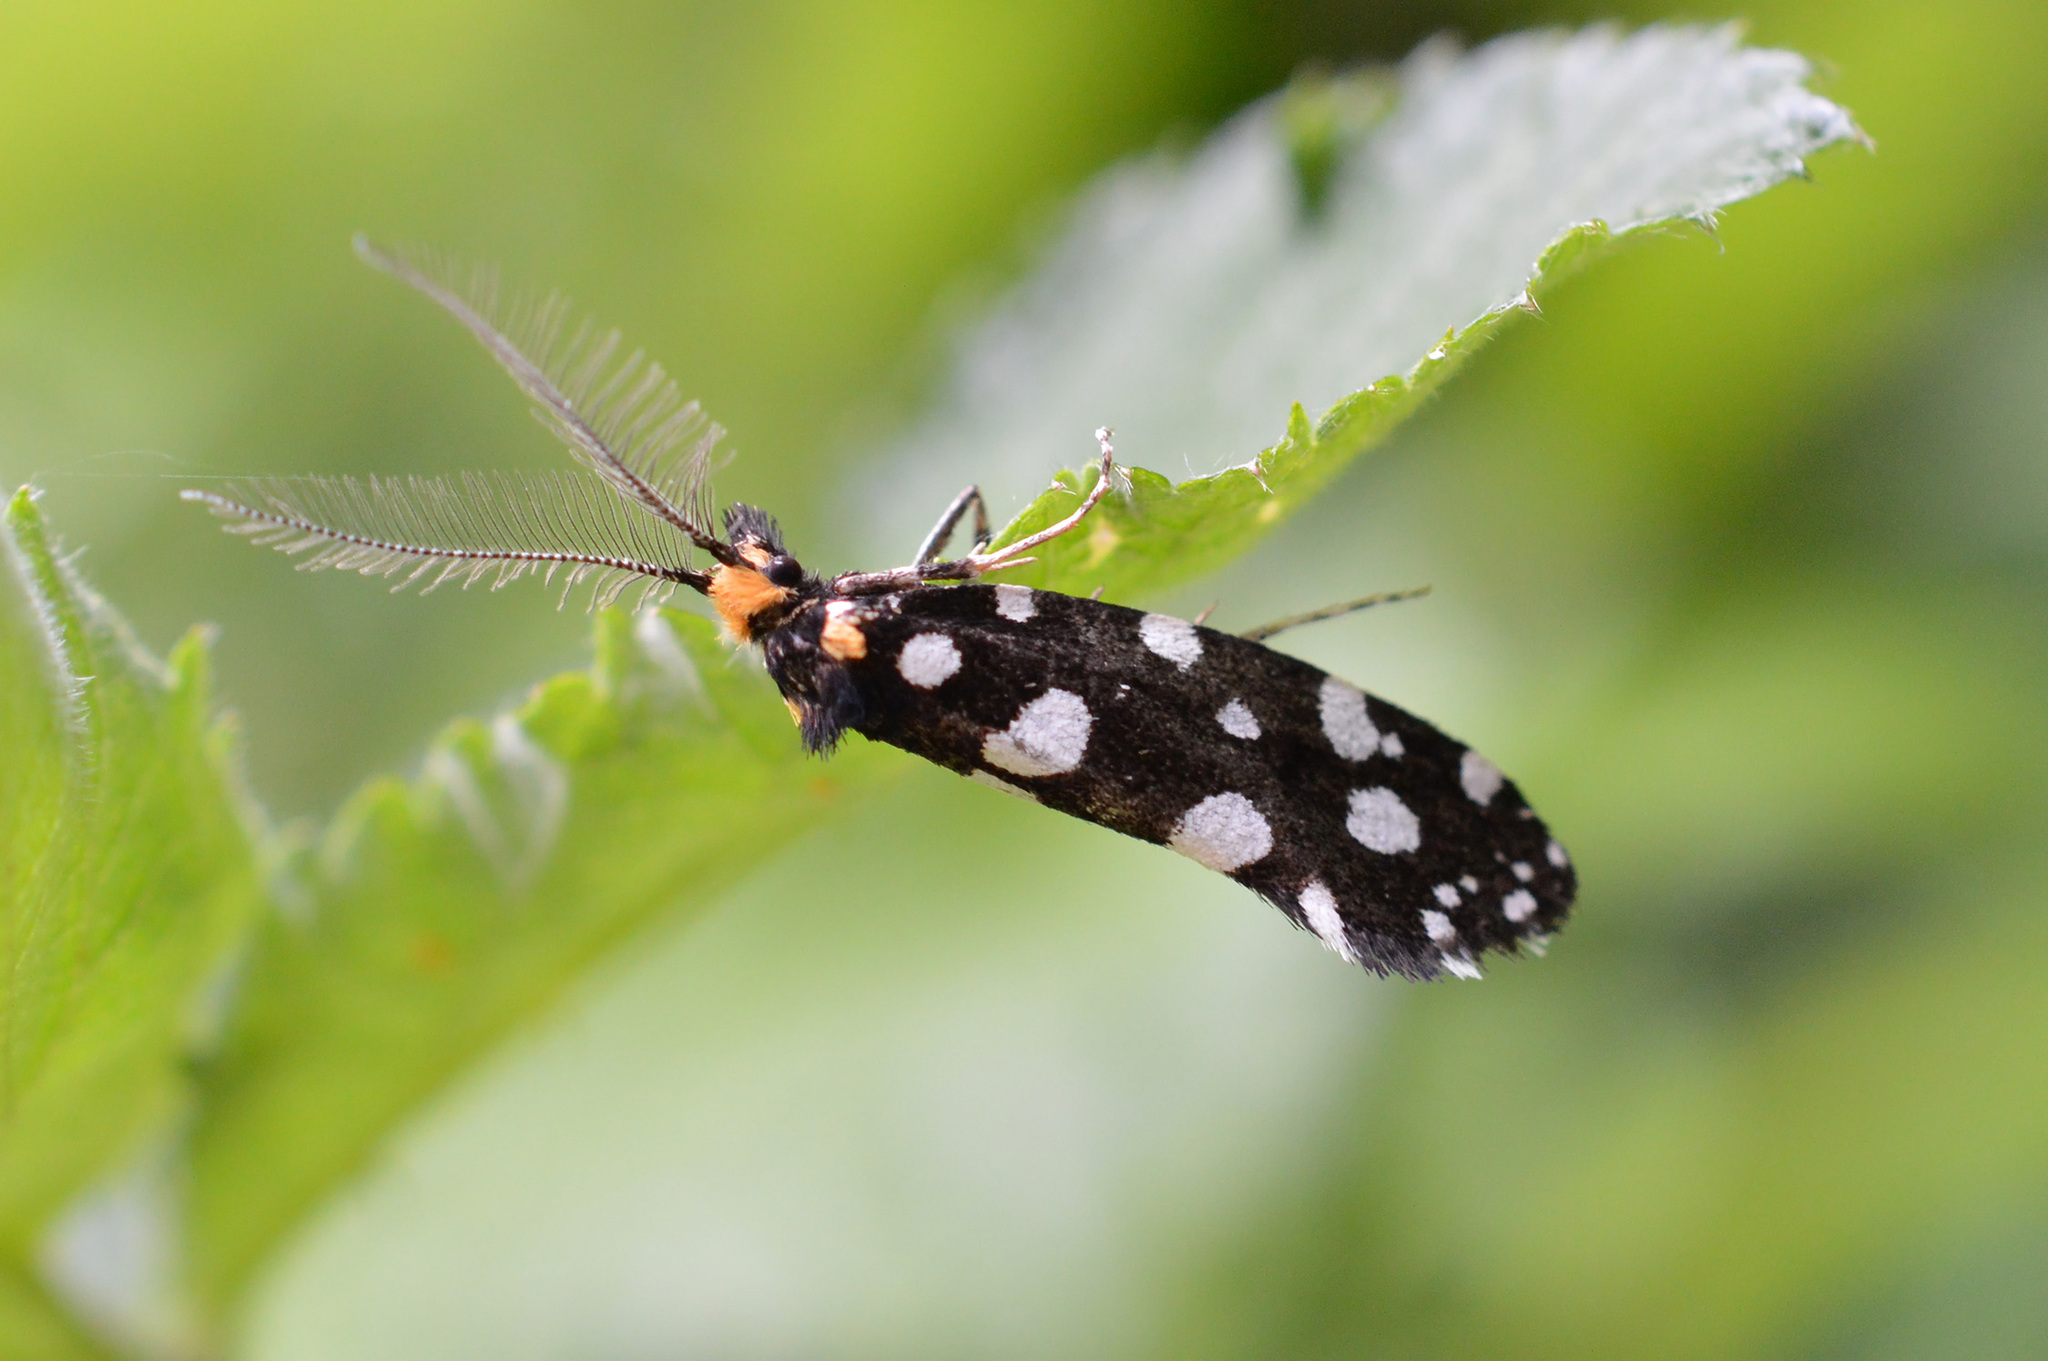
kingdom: Animalia
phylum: Arthropoda
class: Insecta
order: Lepidoptera
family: Tineidae
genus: Euplocamus
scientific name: Euplocamus anthracinalis
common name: Black clothes
